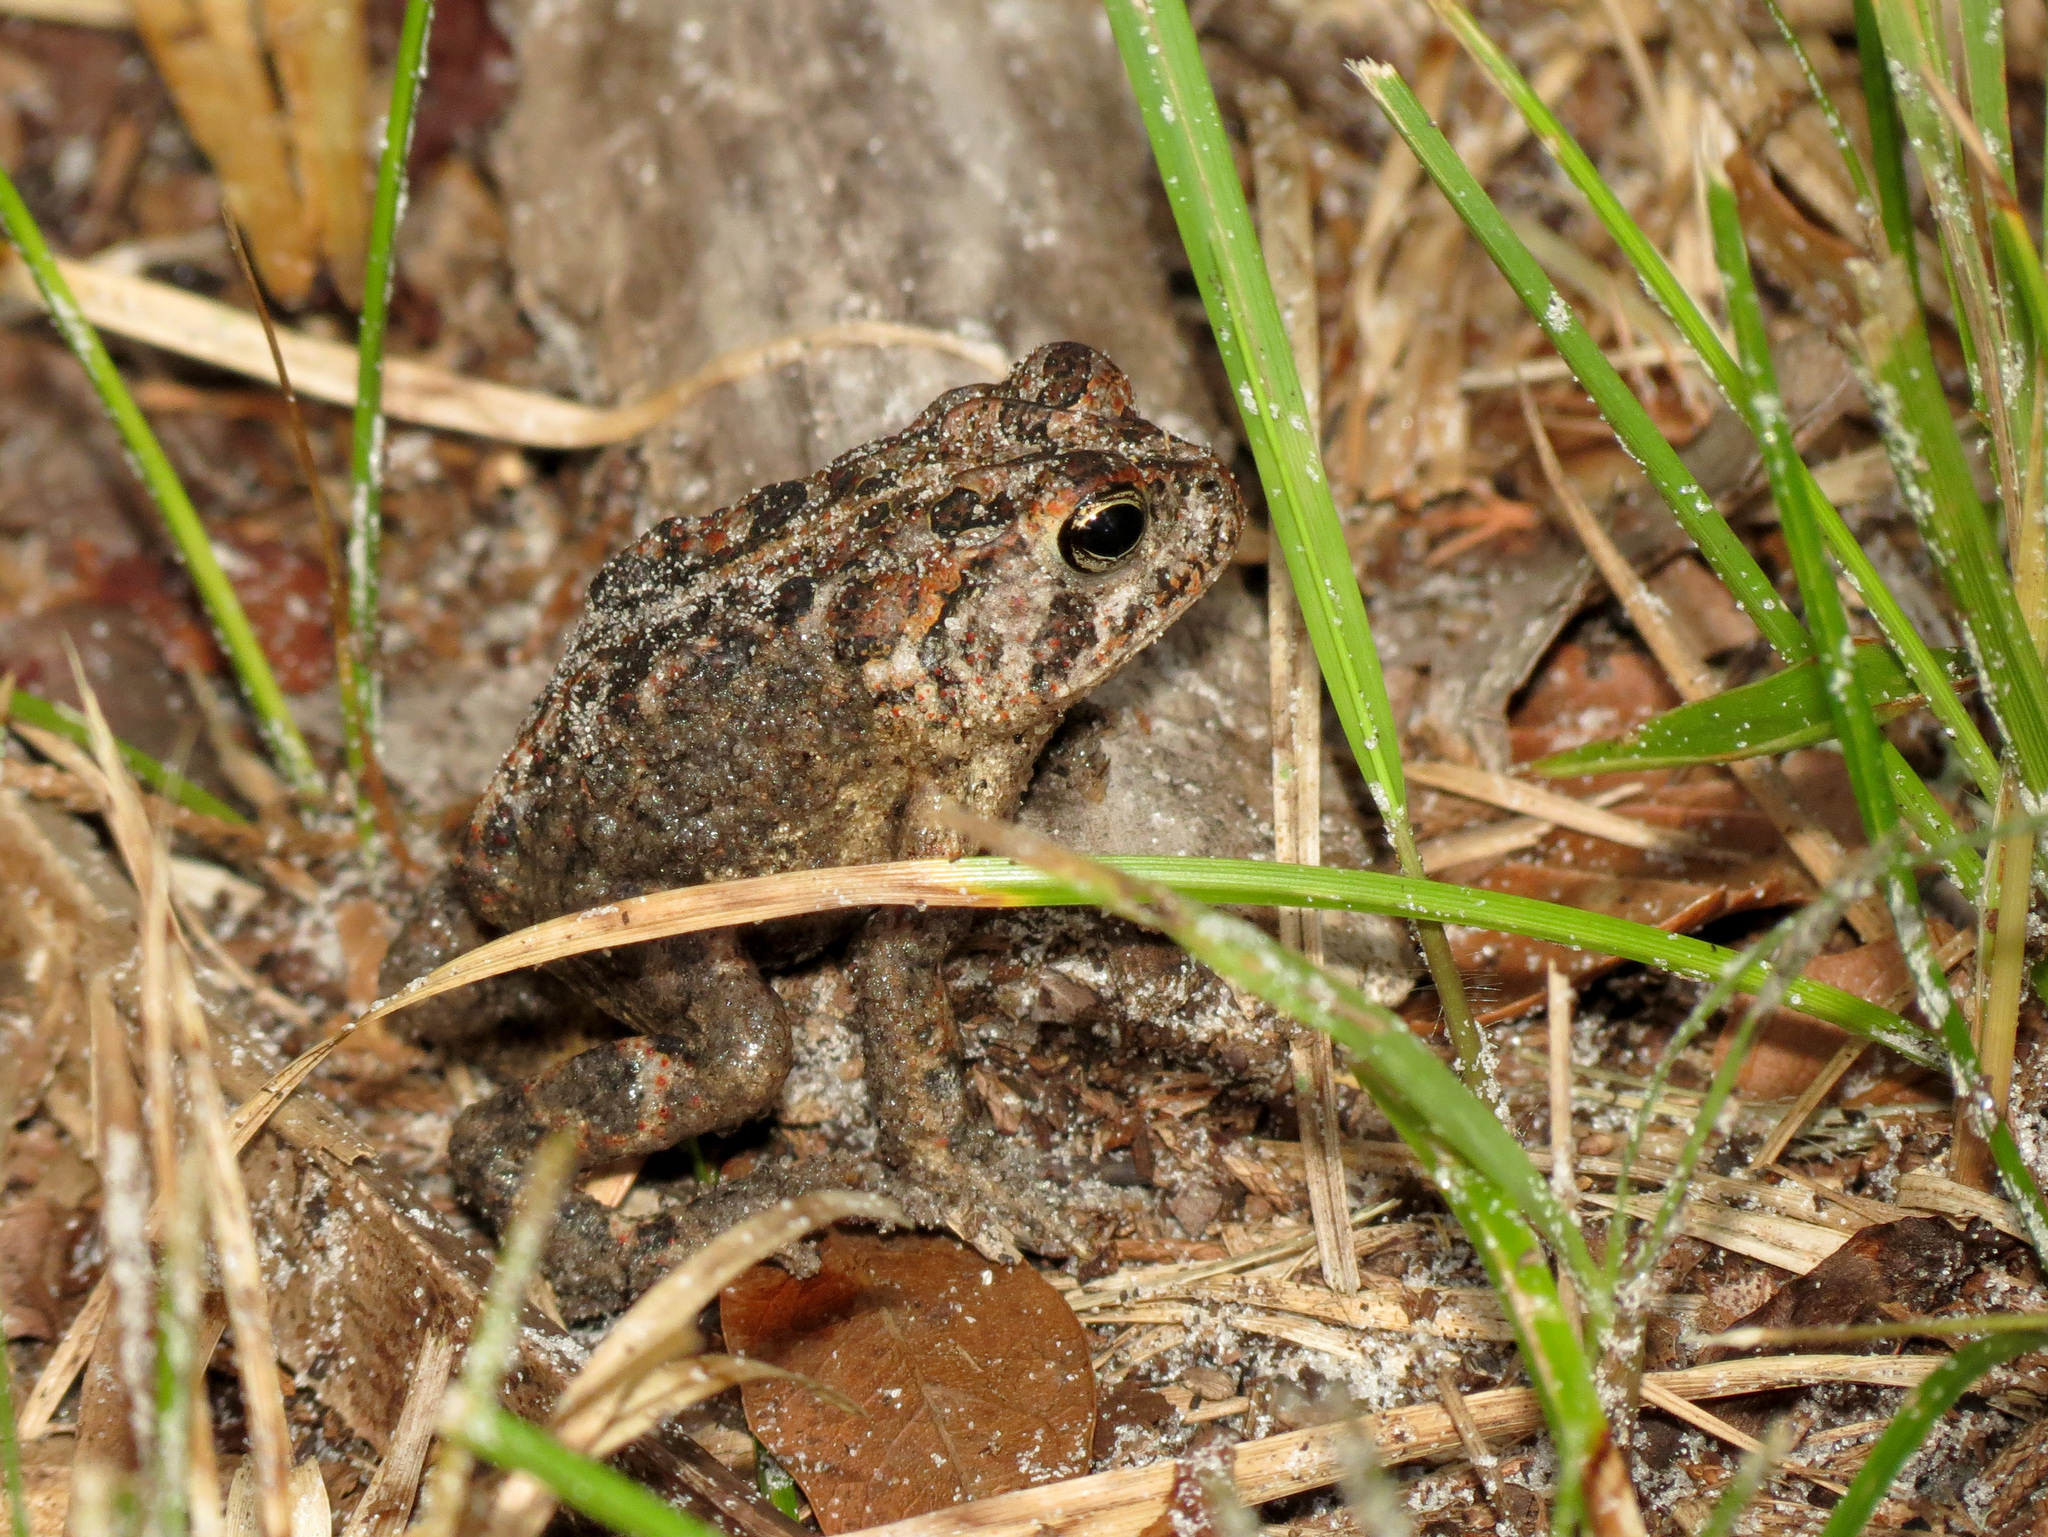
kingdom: Animalia
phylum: Chordata
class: Amphibia
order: Anura
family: Bufonidae
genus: Anaxyrus
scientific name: Anaxyrus terrestris
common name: Southern toad
